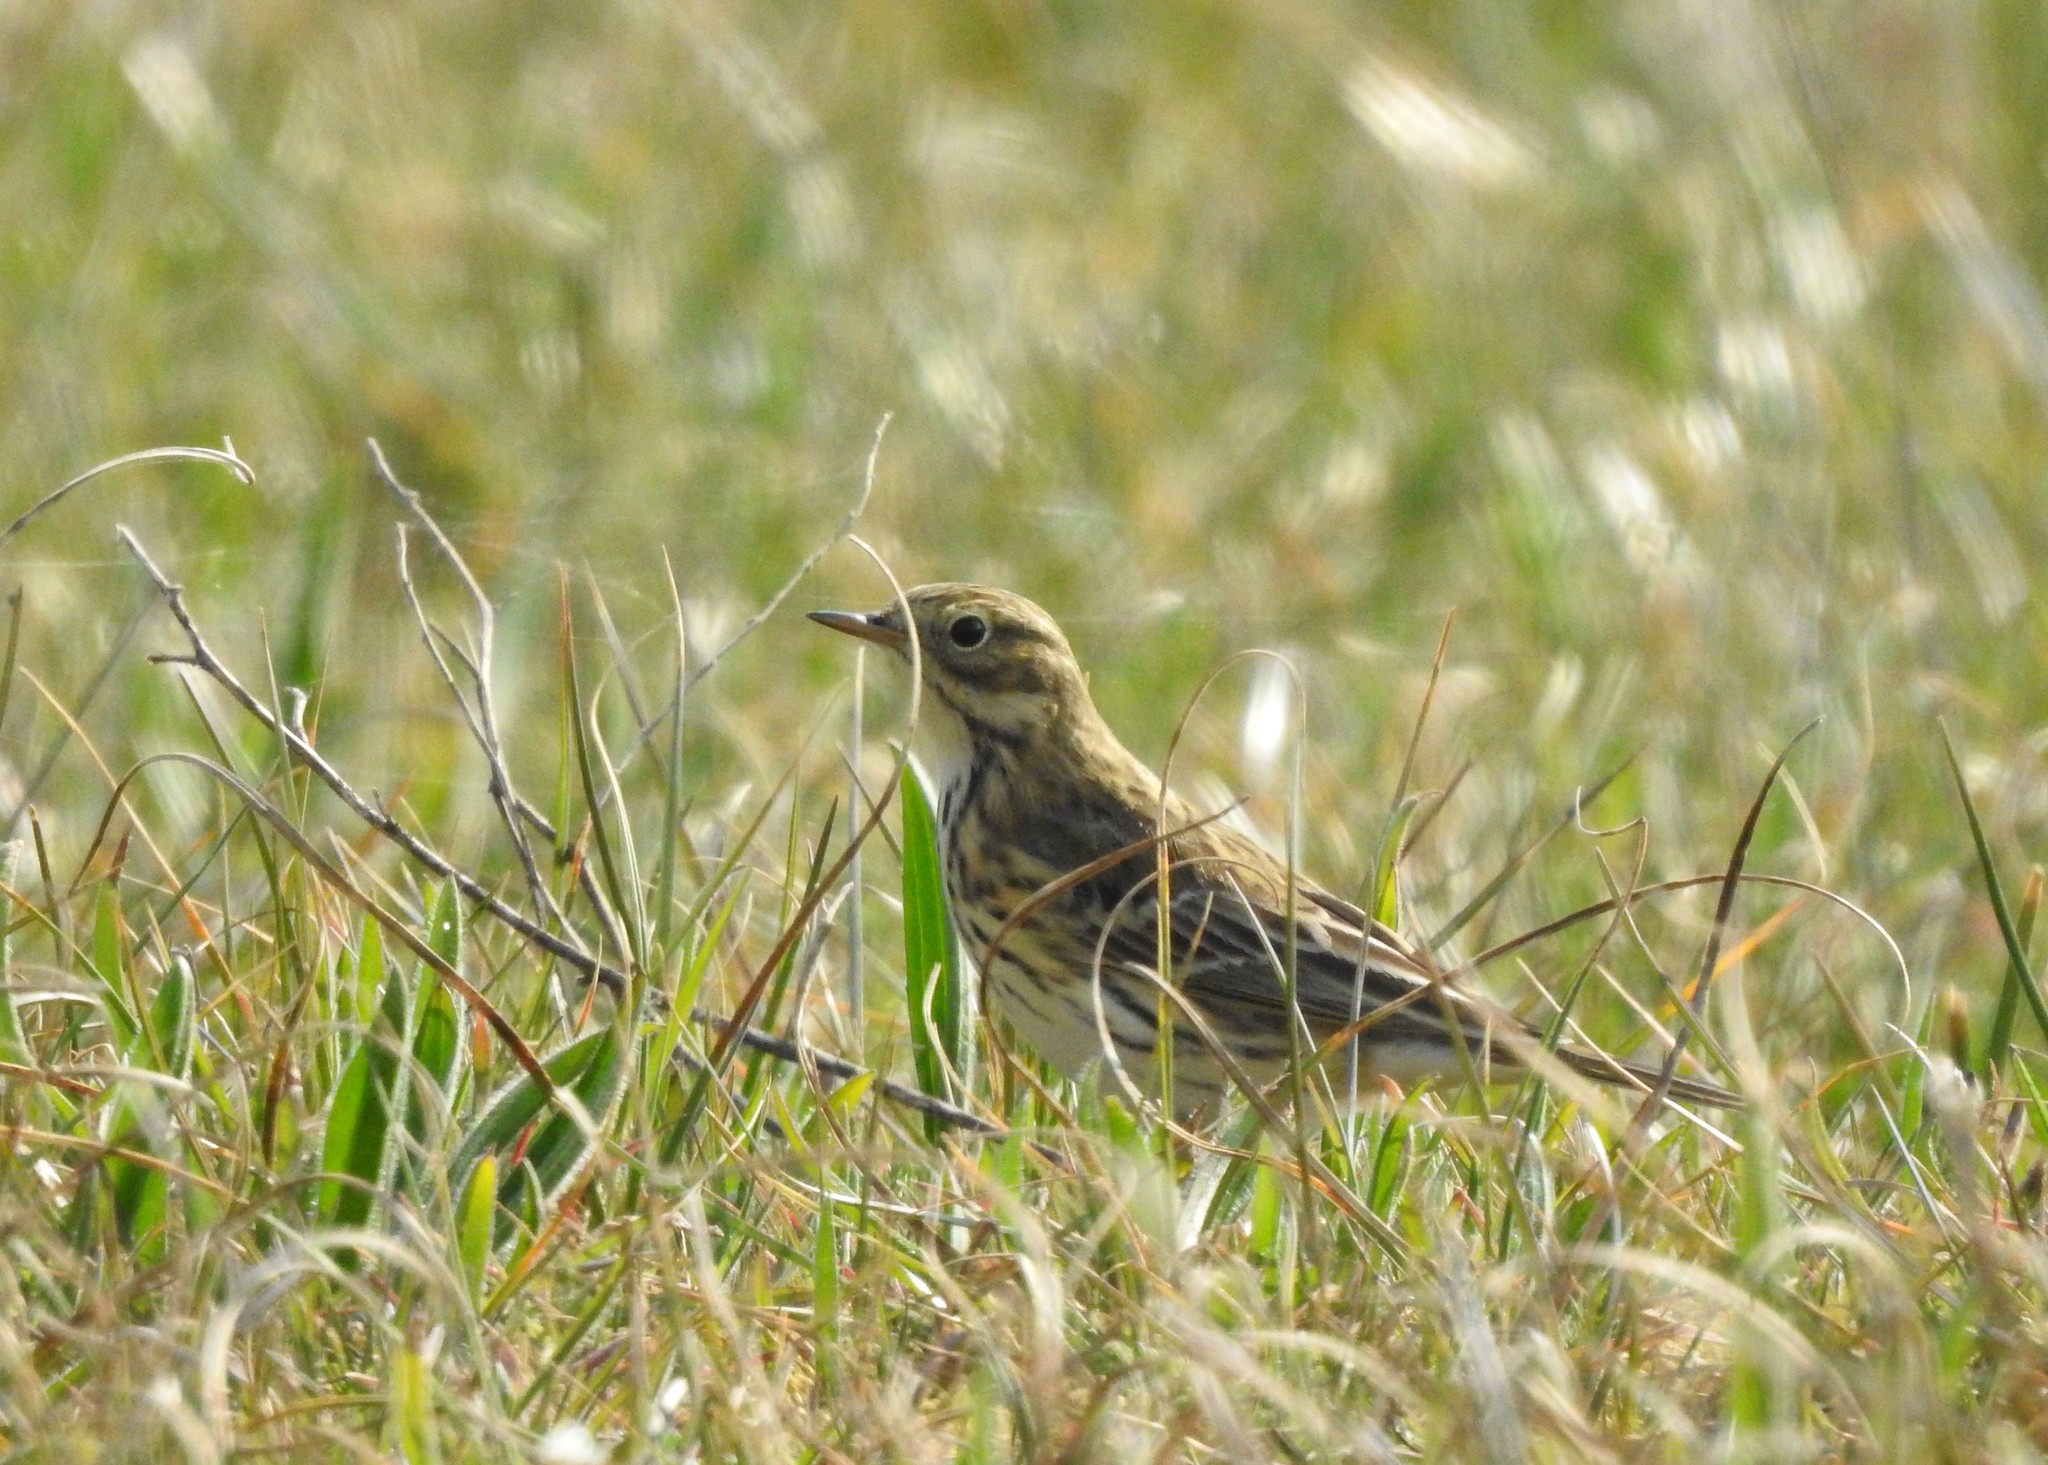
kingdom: Animalia
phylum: Chordata
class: Aves
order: Passeriformes
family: Motacillidae
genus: Anthus
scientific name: Anthus pratensis
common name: Meadow pipit
